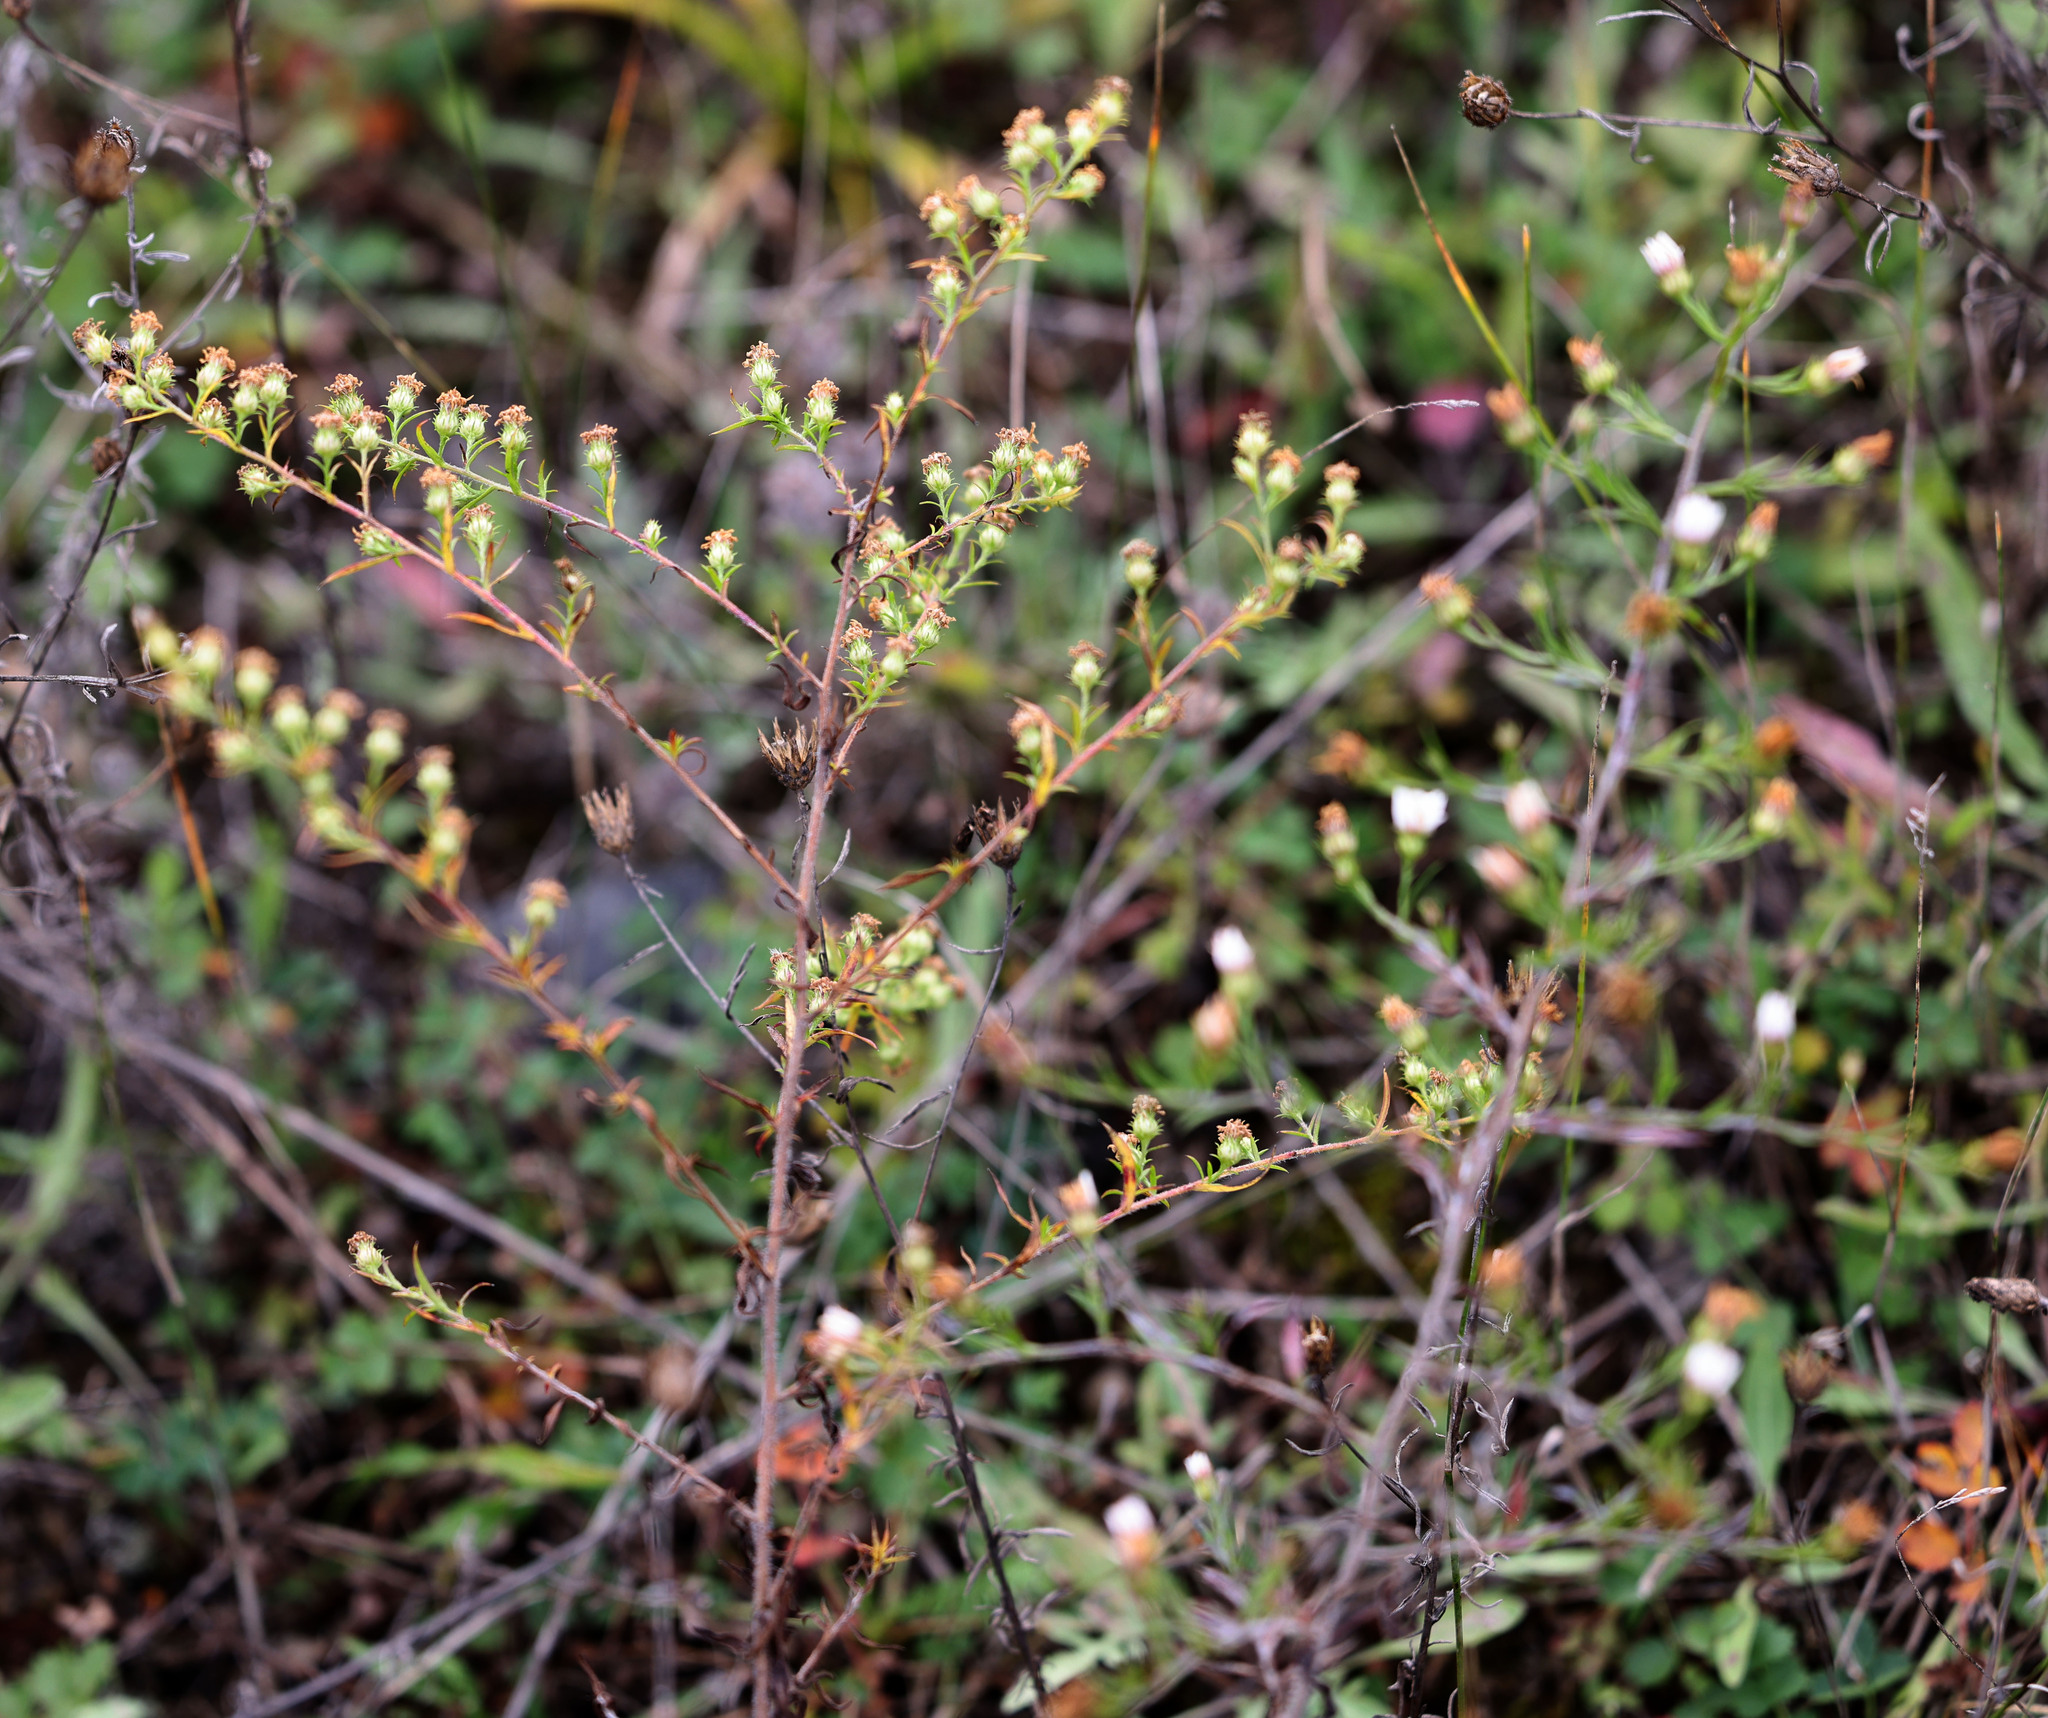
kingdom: Plantae
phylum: Tracheophyta
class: Magnoliopsida
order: Asterales
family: Asteraceae
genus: Symphyotrichum
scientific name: Symphyotrichum pilosum
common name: Awl aster
